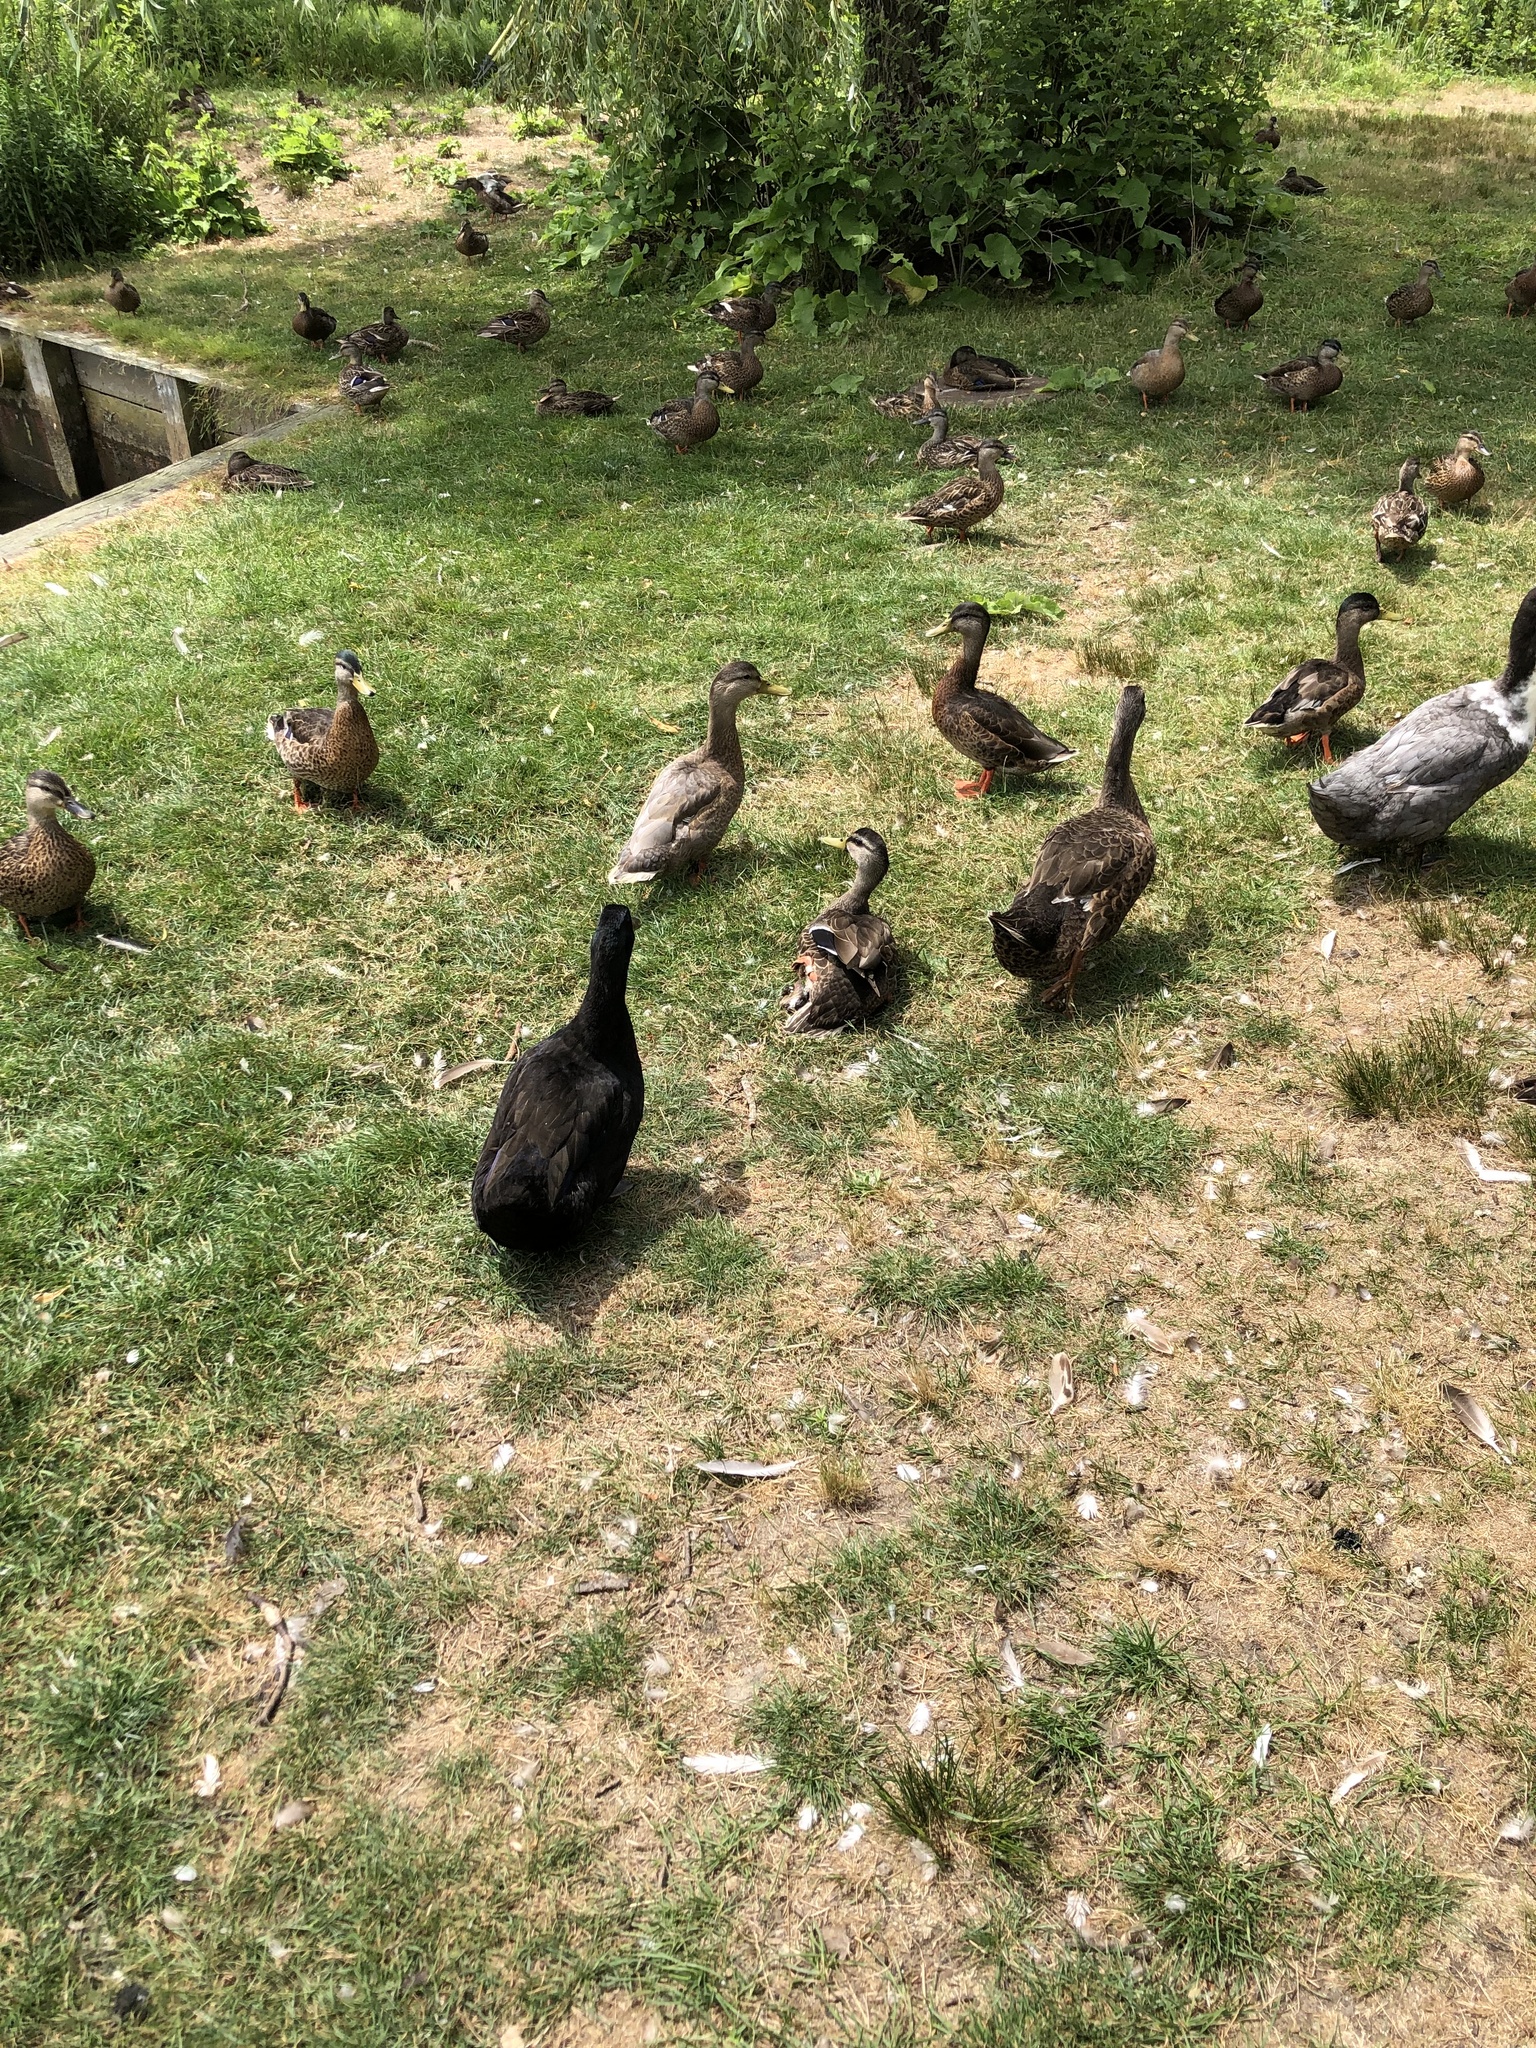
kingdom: Animalia
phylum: Chordata
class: Aves
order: Anseriformes
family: Anatidae
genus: Anas
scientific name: Anas platyrhynchos
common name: Mallard
